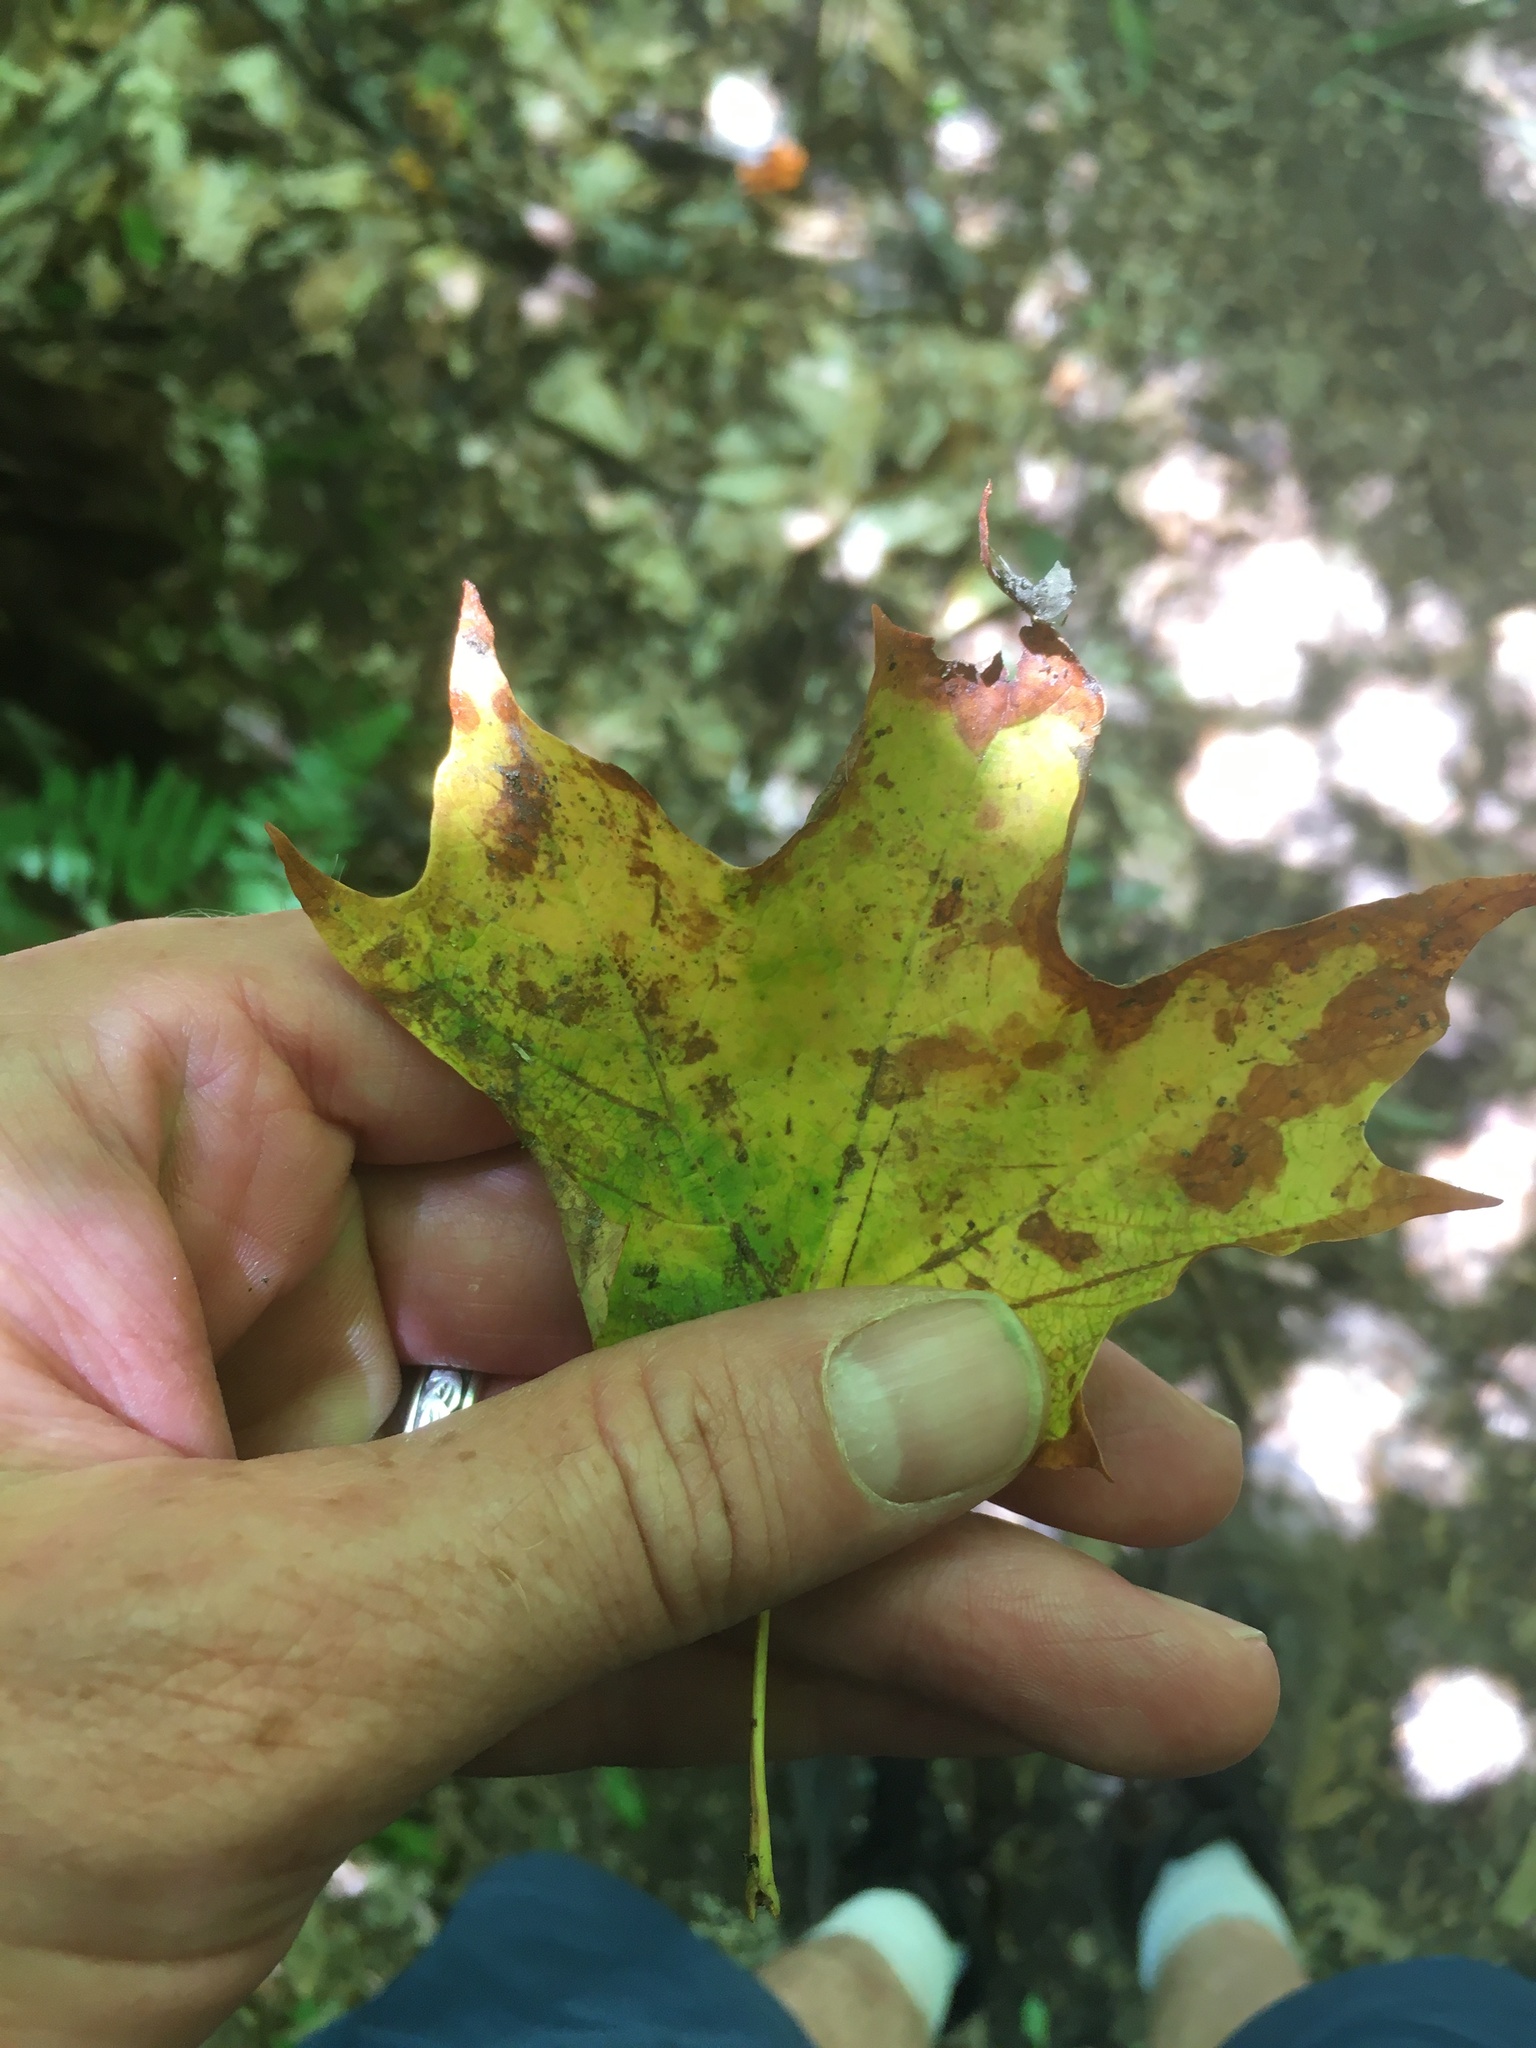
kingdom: Plantae
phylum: Tracheophyta
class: Magnoliopsida
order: Sapindales
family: Sapindaceae
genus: Acer
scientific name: Acer saccharum
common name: Sugar maple
